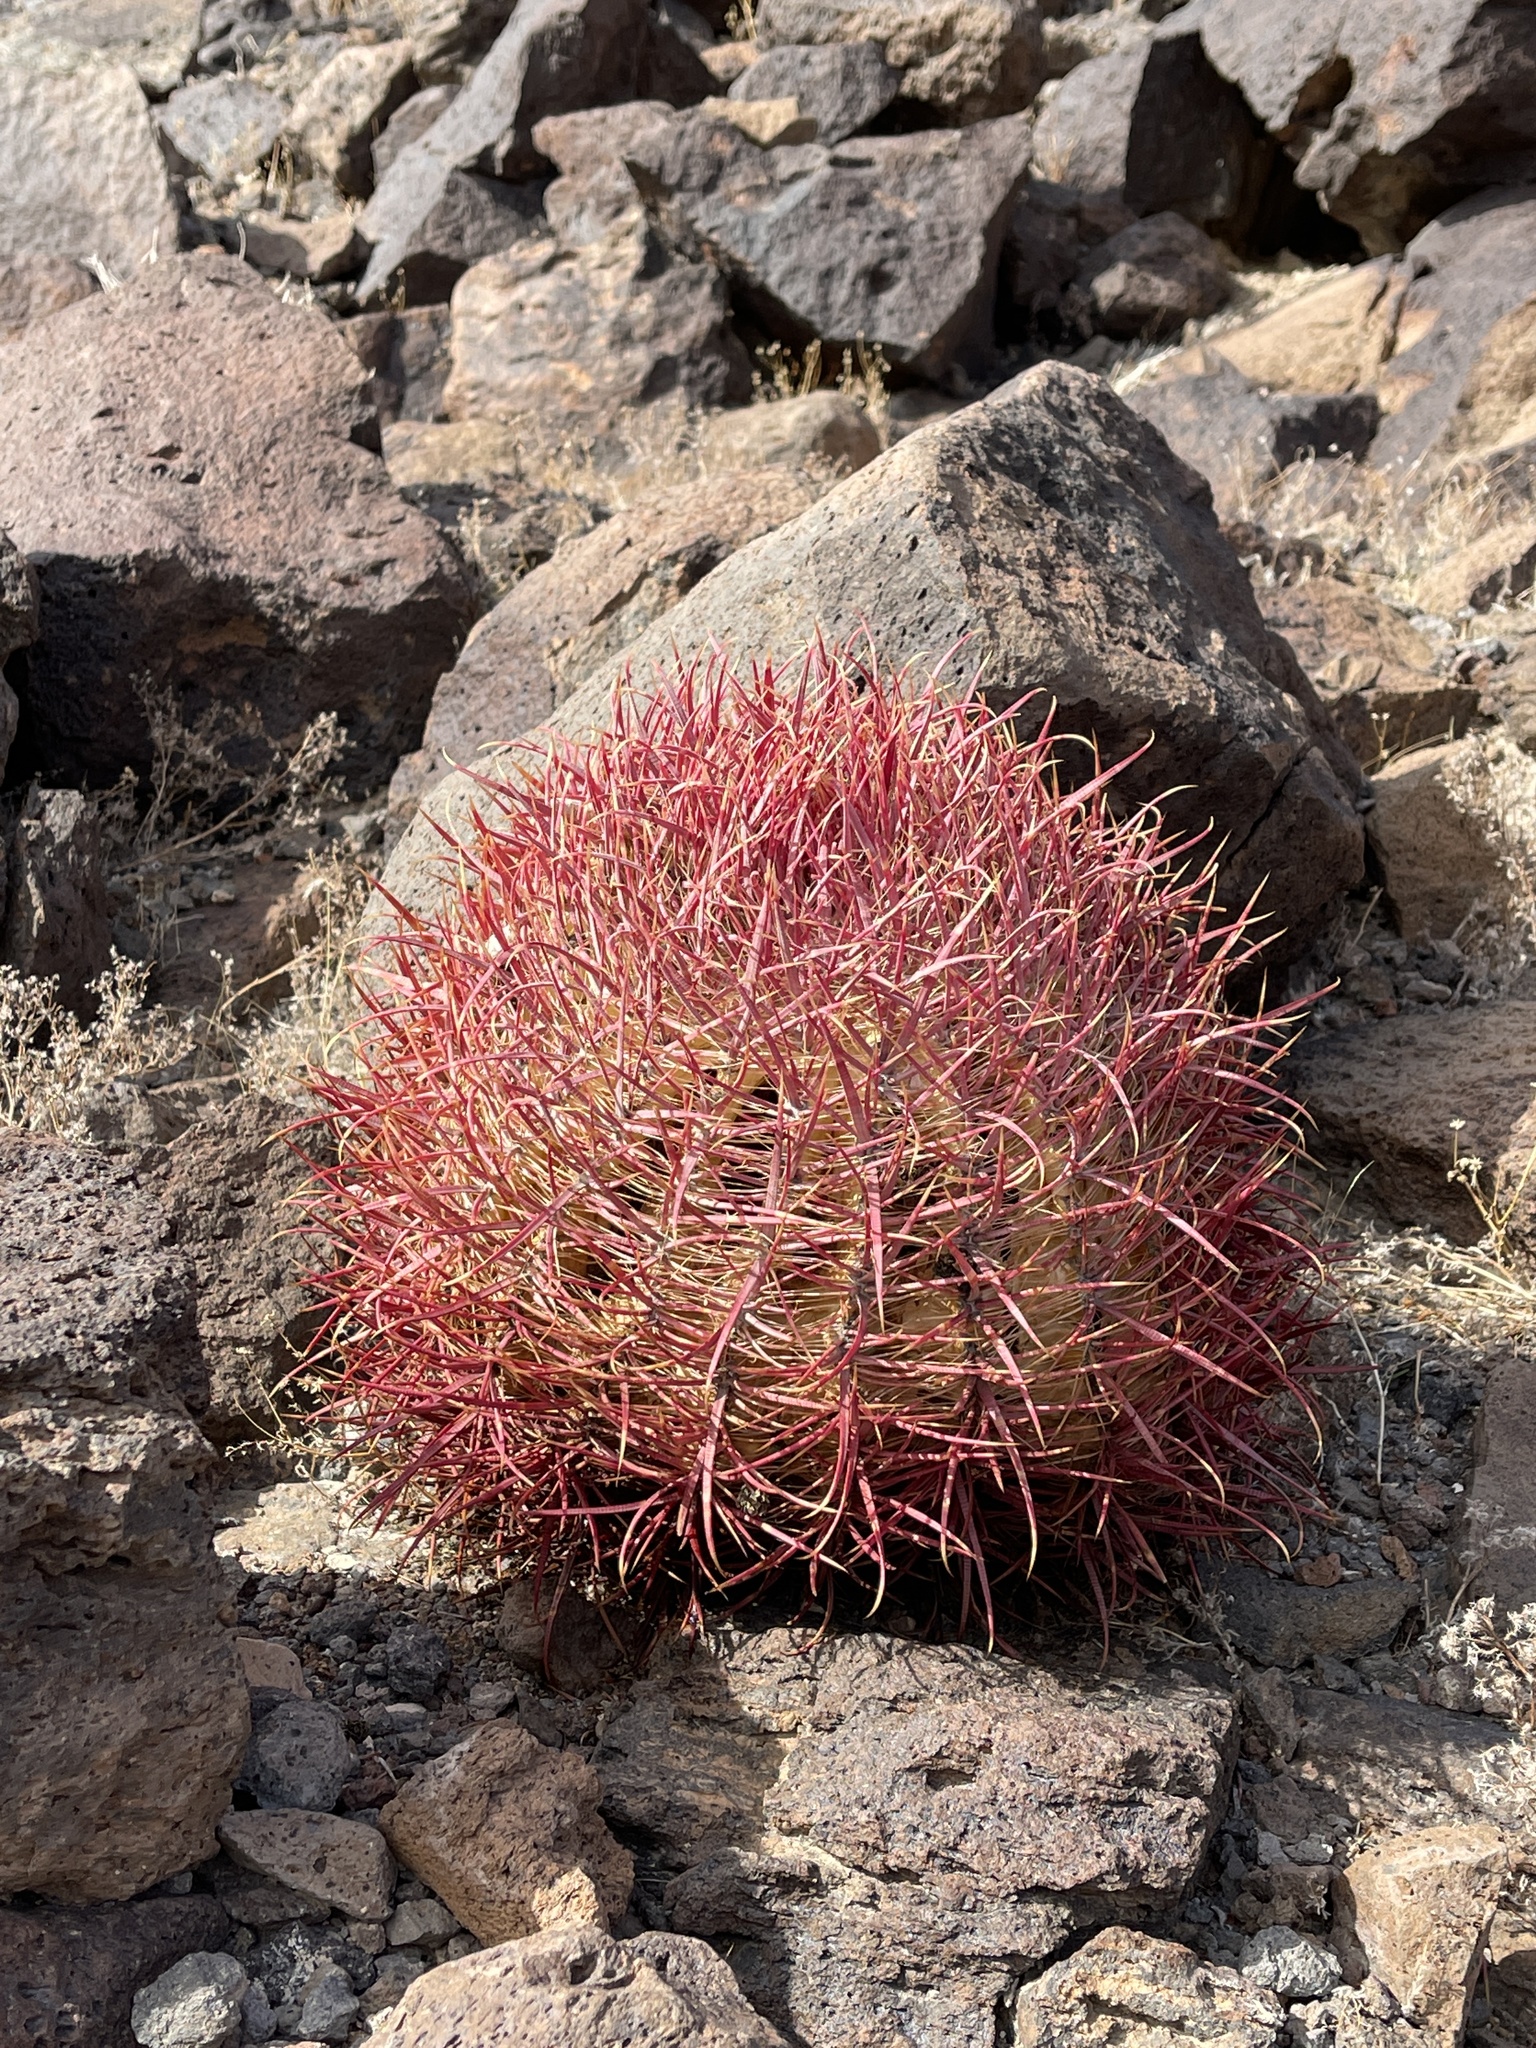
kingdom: Plantae
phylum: Tracheophyta
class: Magnoliopsida
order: Caryophyllales
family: Cactaceae
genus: Ferocactus
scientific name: Ferocactus cylindraceus
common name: California barrel cactus
